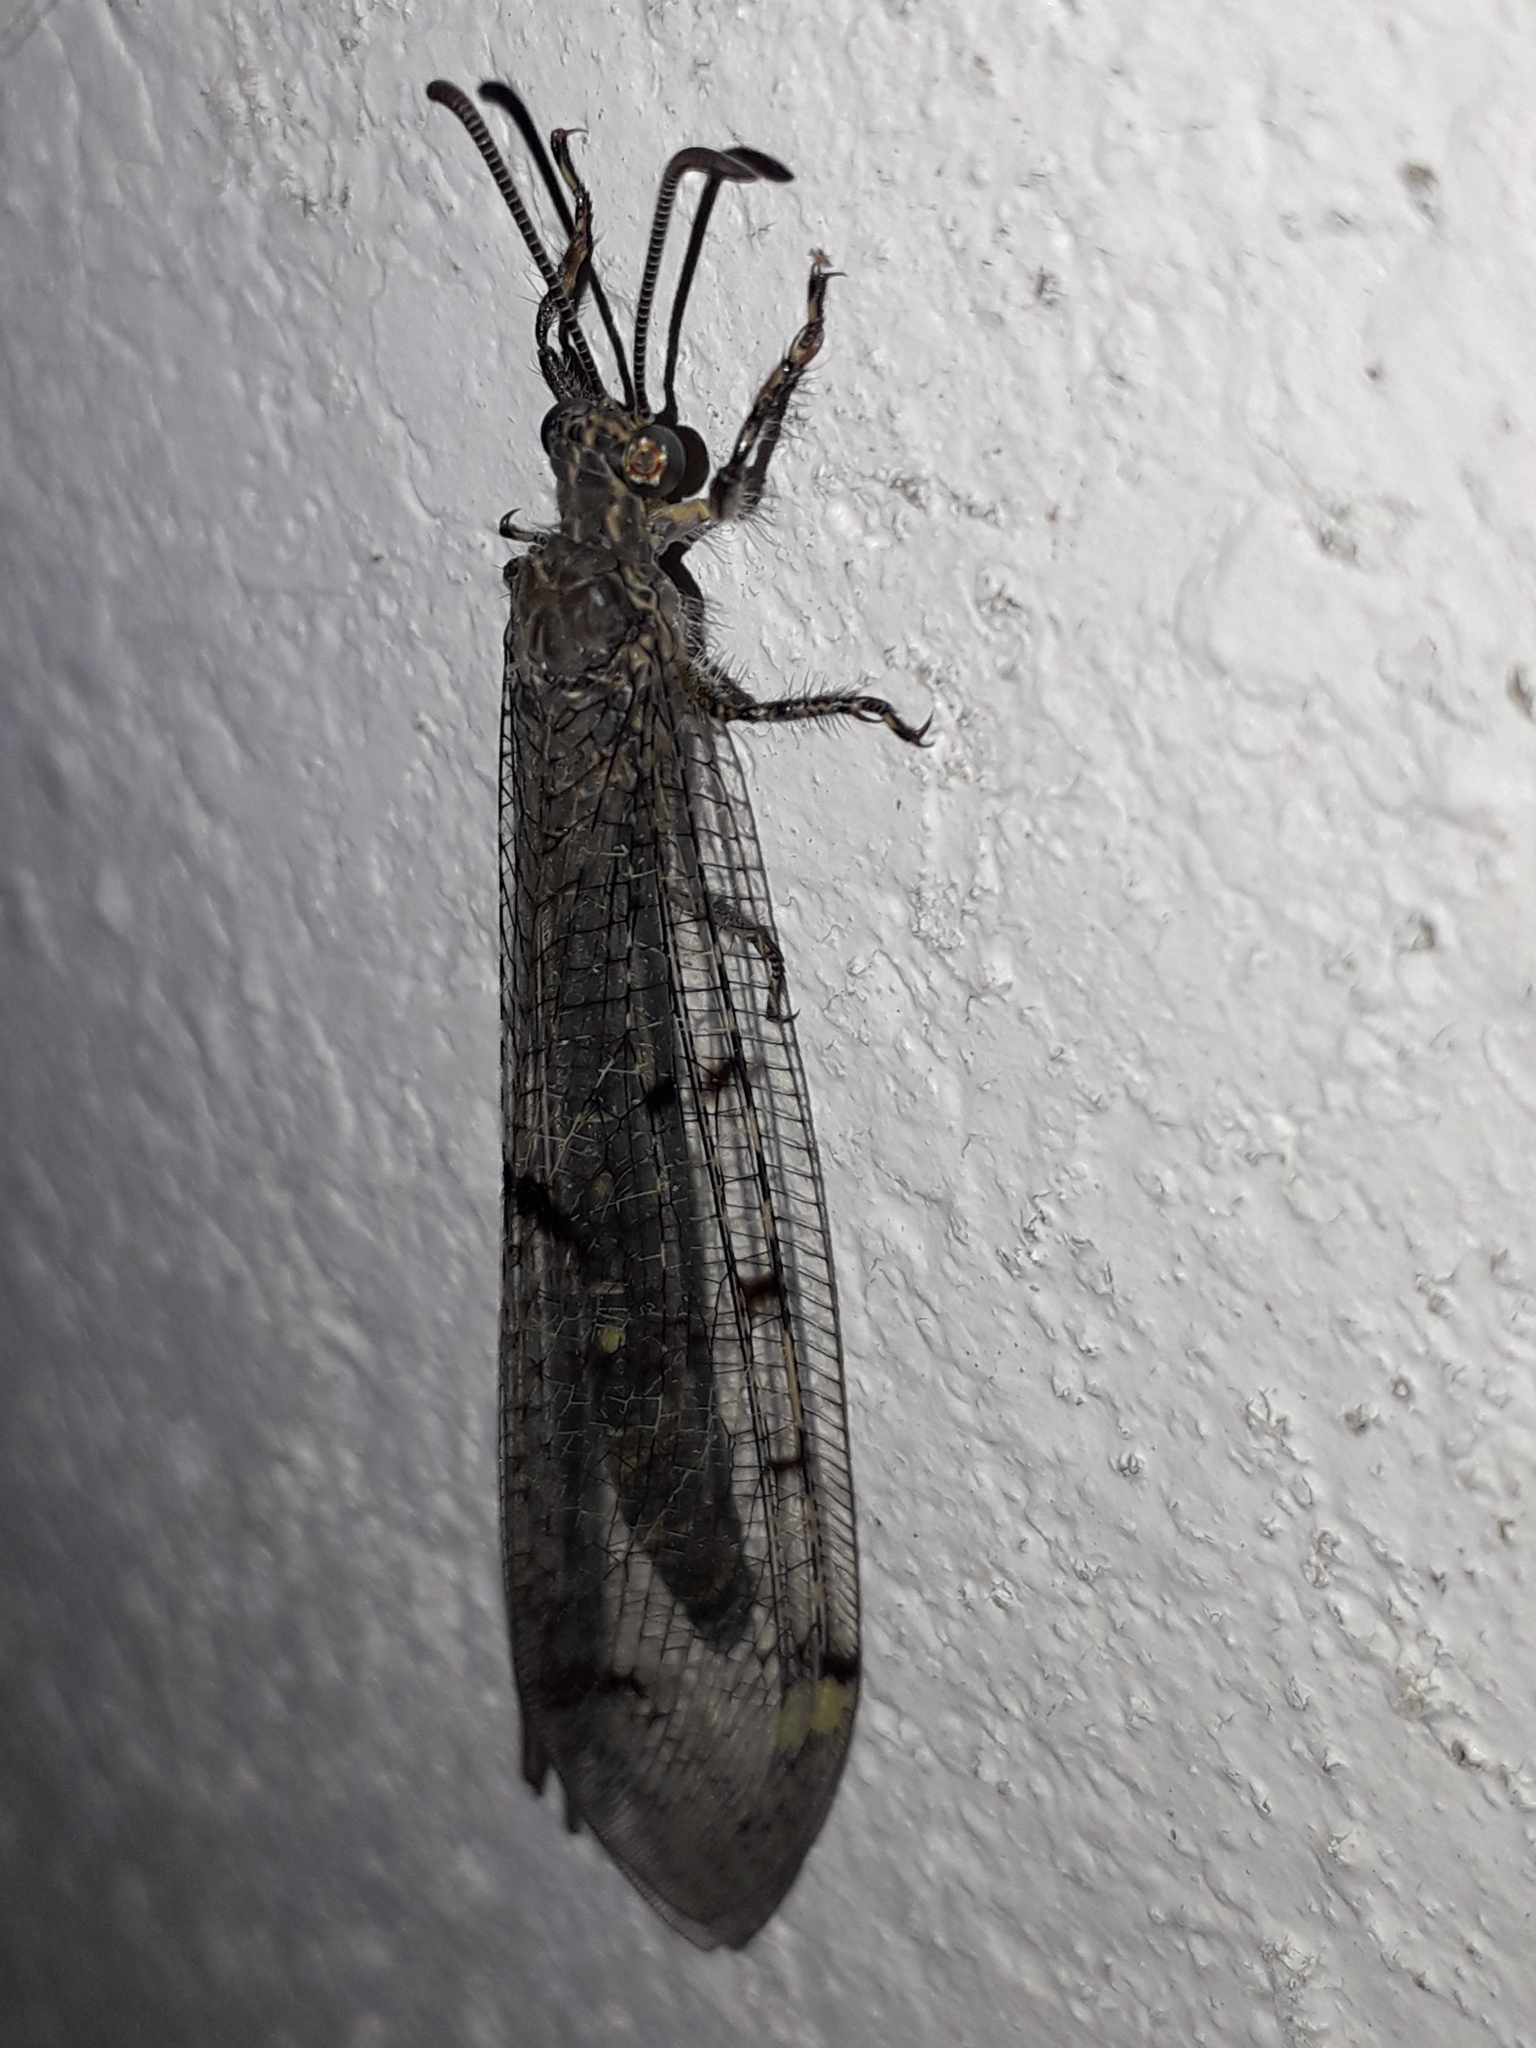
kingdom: Animalia
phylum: Arthropoda
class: Insecta
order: Neuroptera
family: Myrmeleontidae
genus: Distoleon
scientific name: Distoleon tetragrammicus
